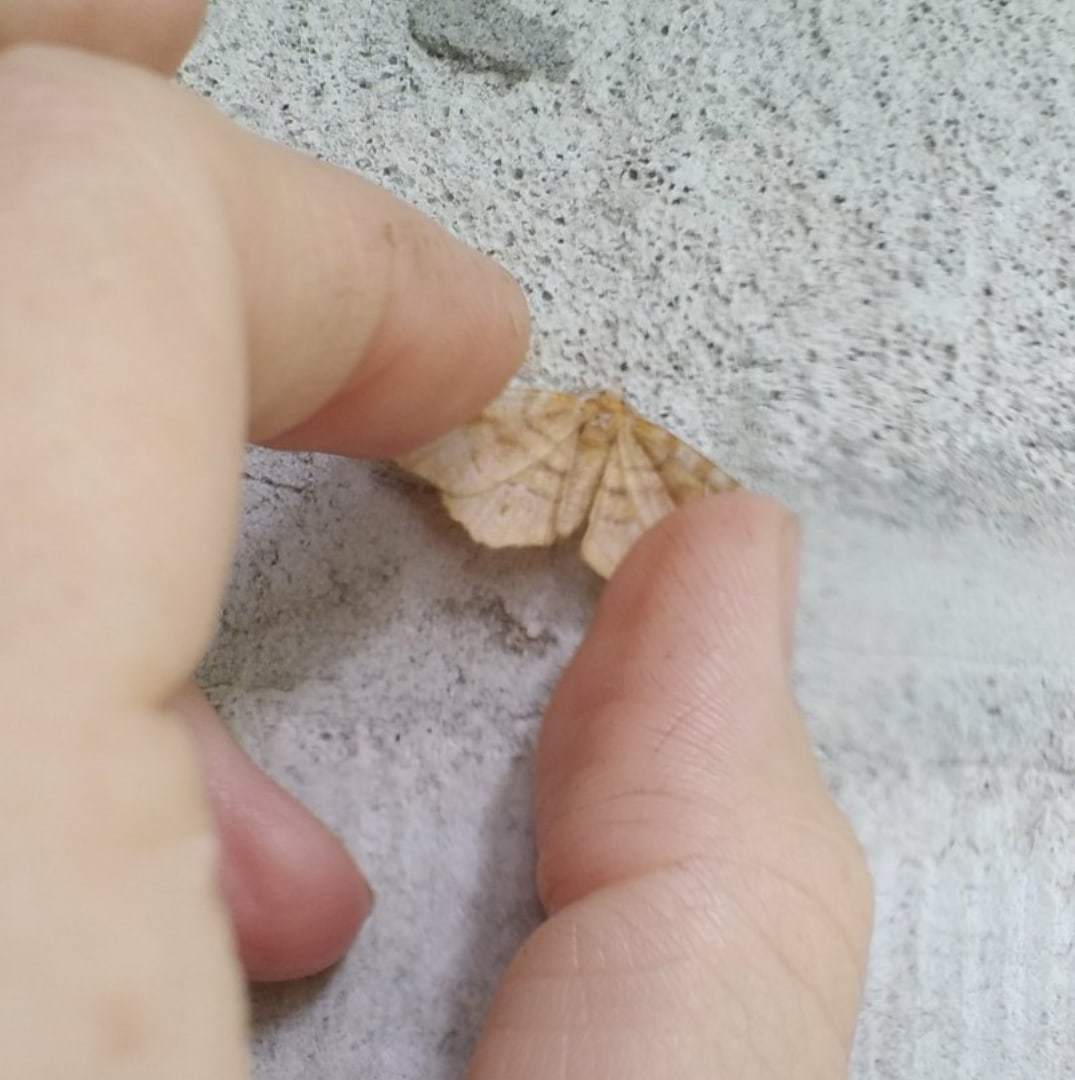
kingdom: Animalia
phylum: Arthropoda
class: Insecta
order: Lepidoptera
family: Geometridae
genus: Selenia
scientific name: Selenia tetralunaria
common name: Purple thorn
